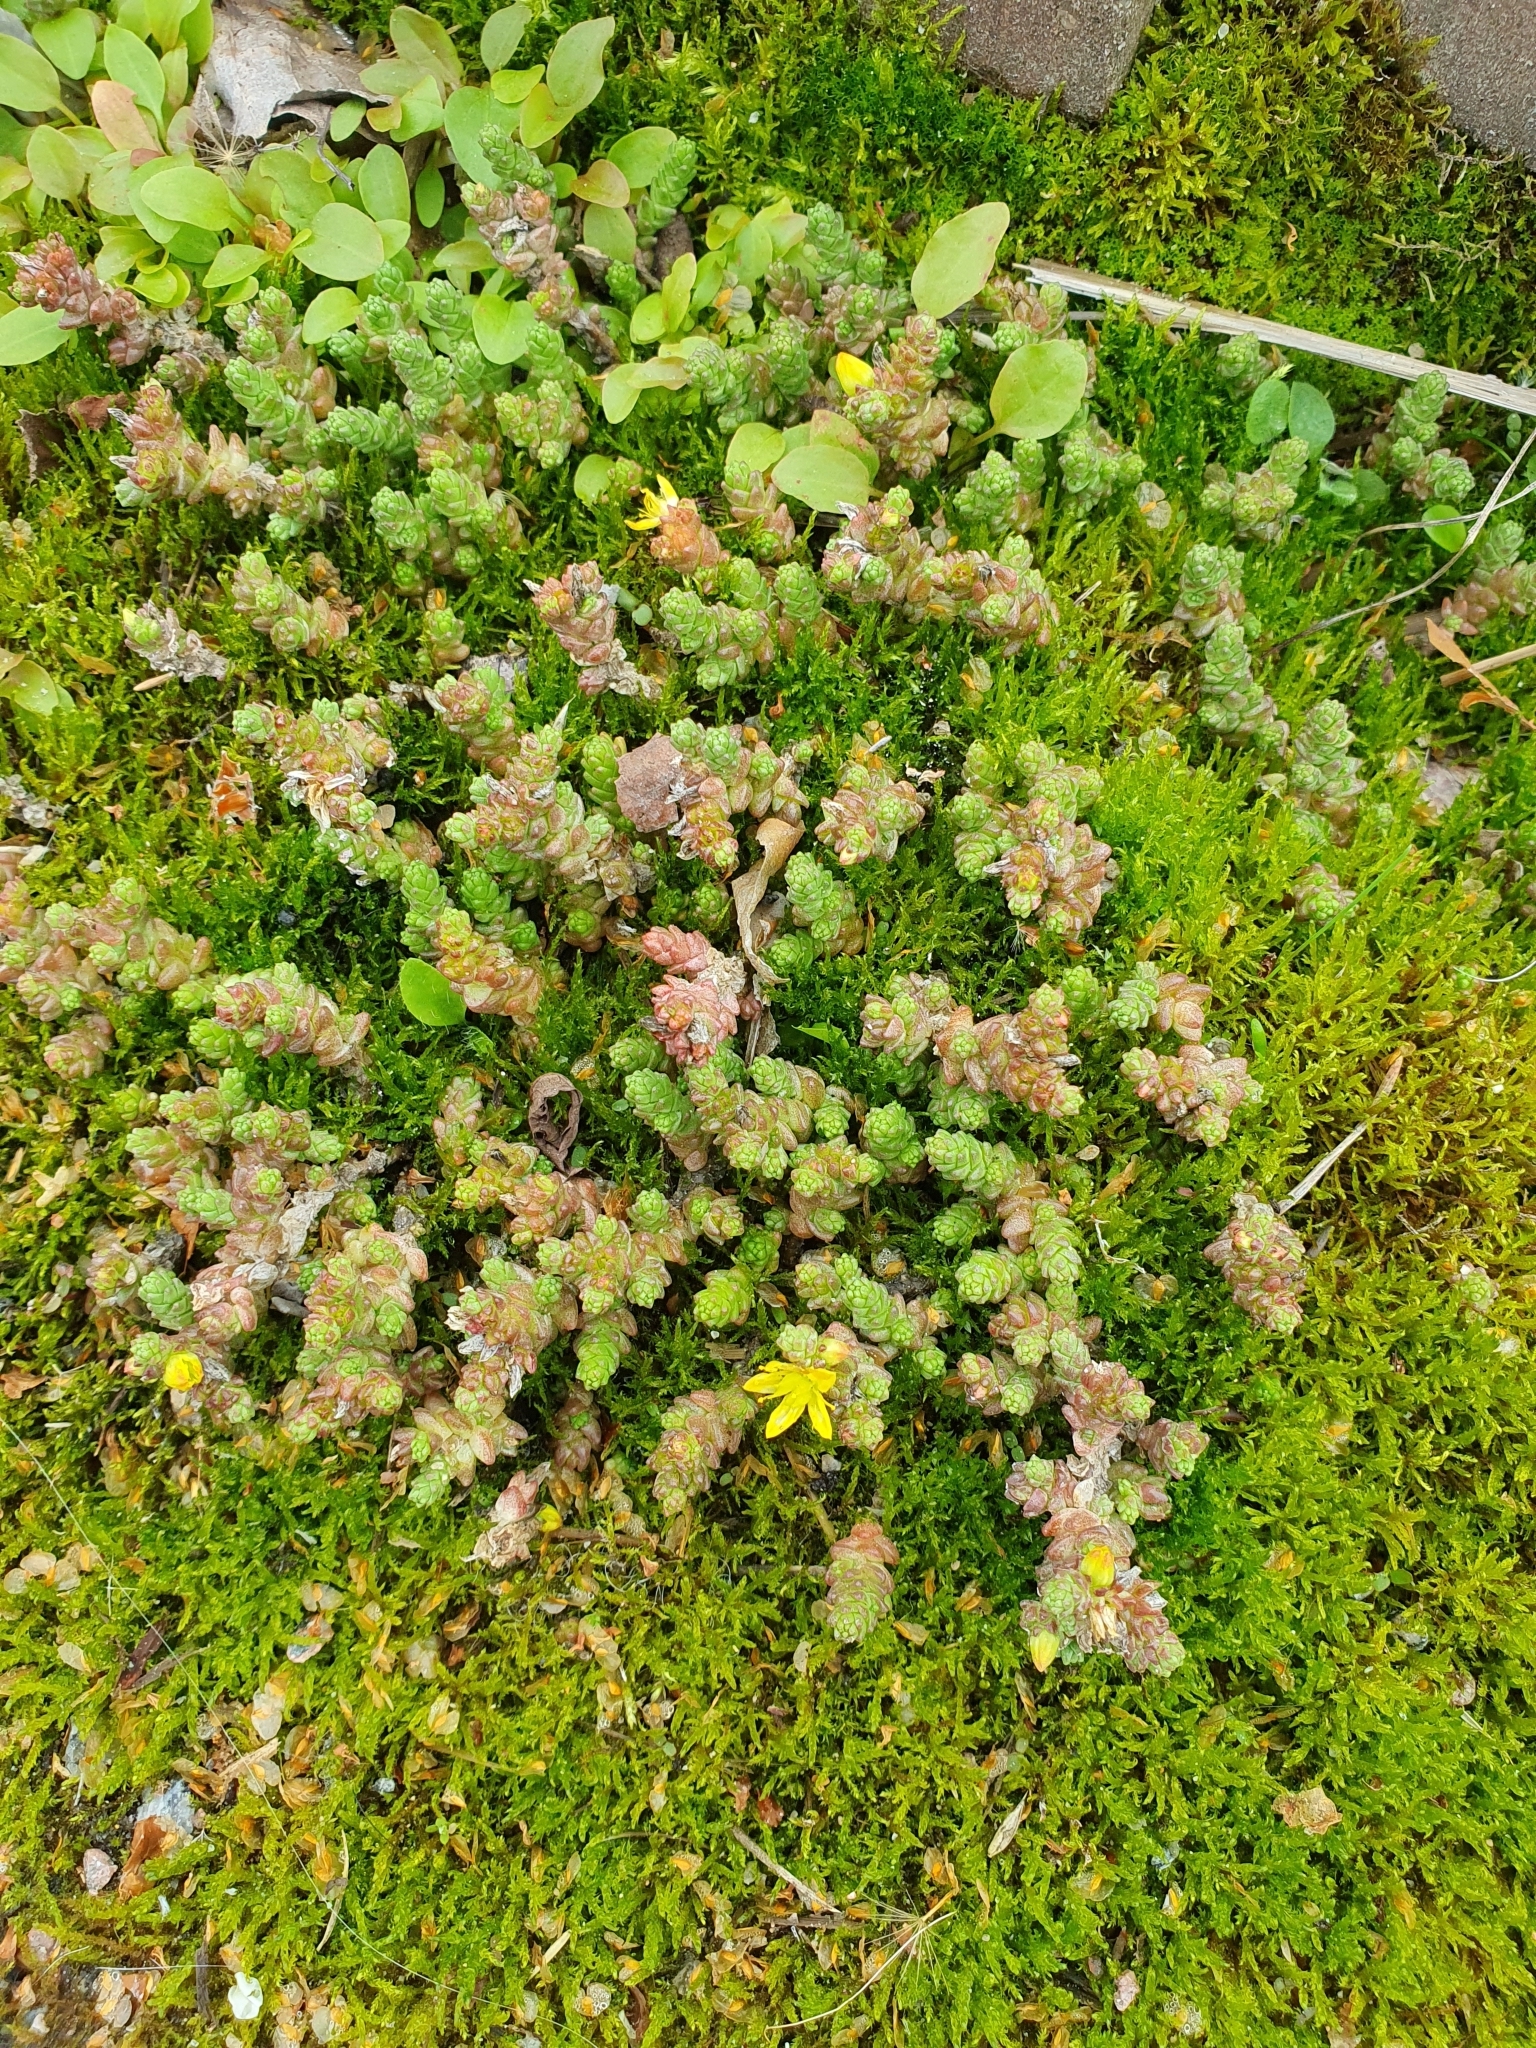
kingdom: Plantae
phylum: Tracheophyta
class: Magnoliopsida
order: Saxifragales
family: Crassulaceae
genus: Sedum
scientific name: Sedum acre
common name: Biting stonecrop
